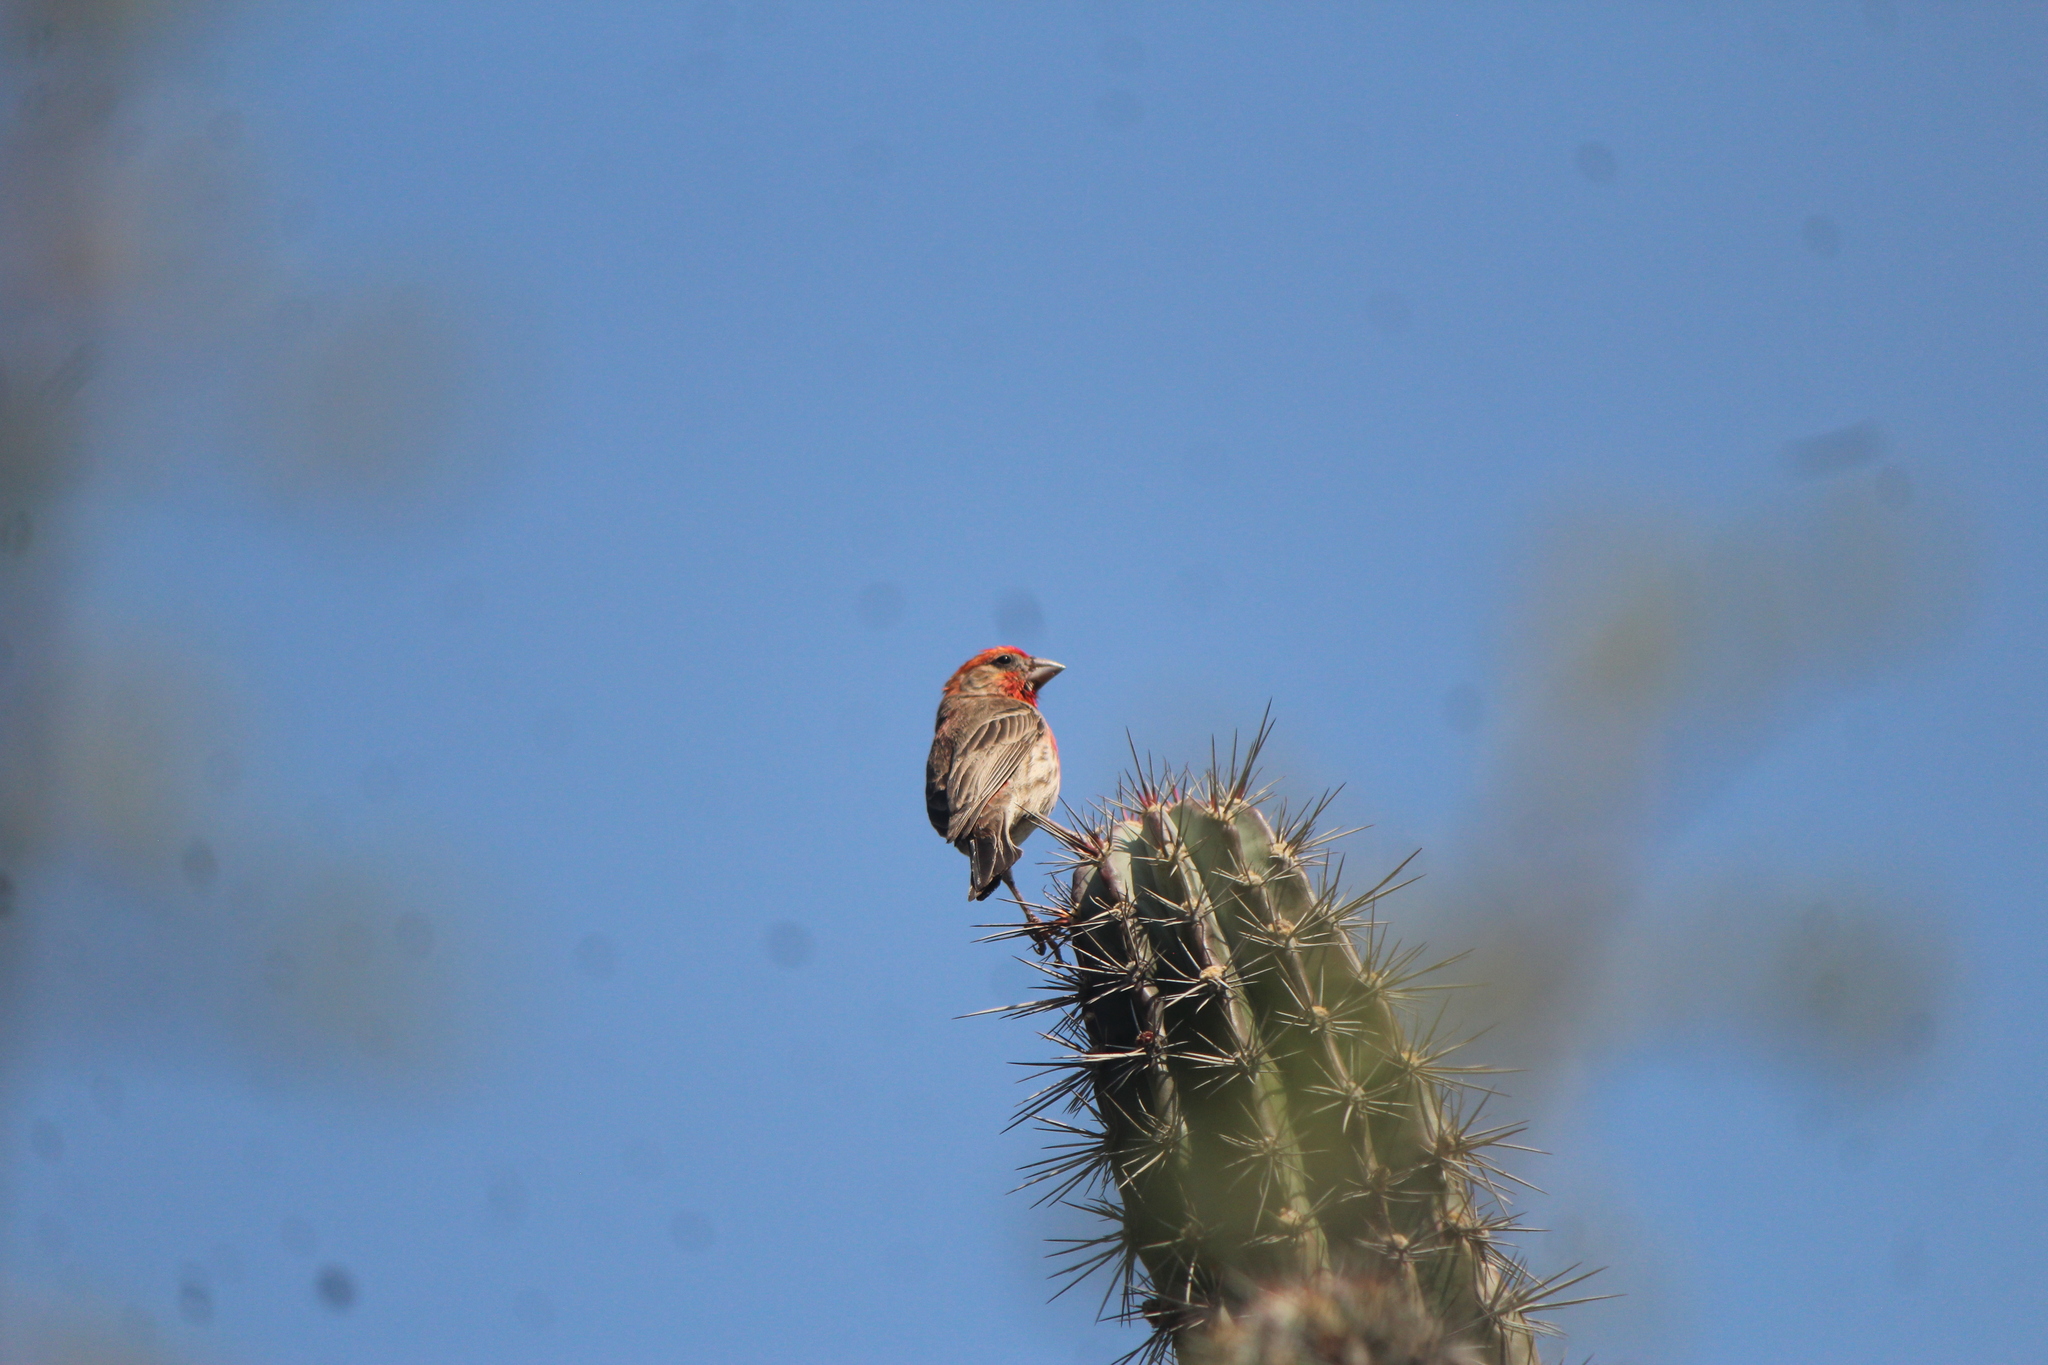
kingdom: Animalia
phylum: Chordata
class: Aves
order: Passeriformes
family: Fringillidae
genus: Haemorhous
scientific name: Haemorhous mexicanus
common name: House finch
